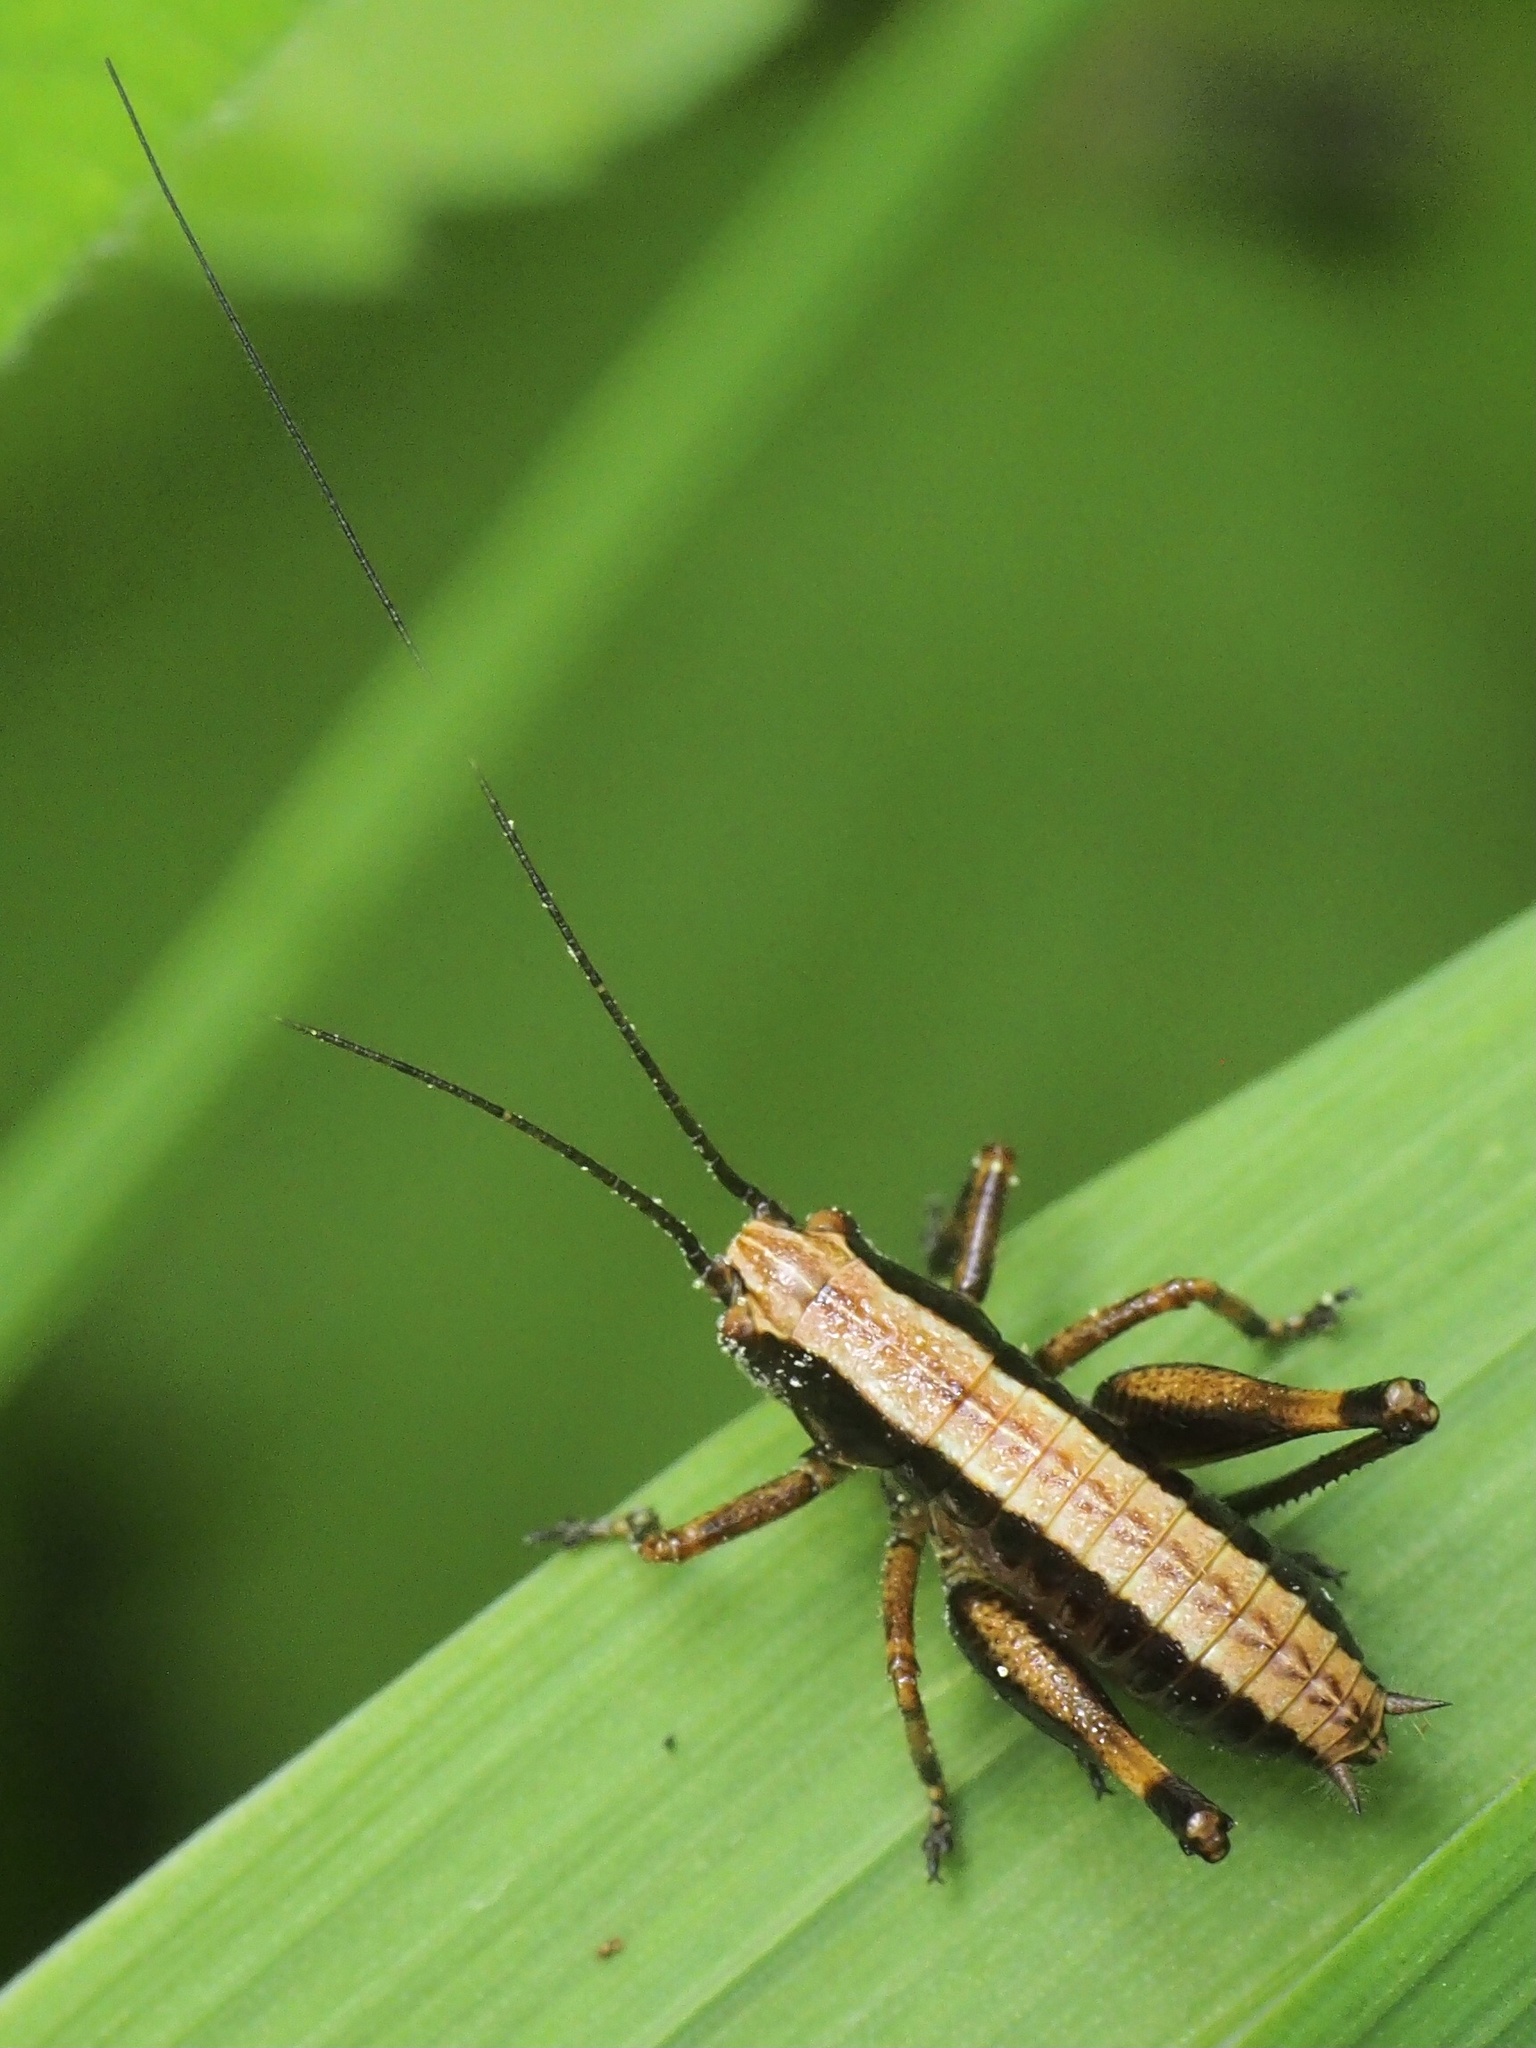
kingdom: Animalia
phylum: Arthropoda
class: Insecta
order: Orthoptera
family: Tettigoniidae
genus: Pholidoptera
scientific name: Pholidoptera griseoaptera
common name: Dark bush-cricket
